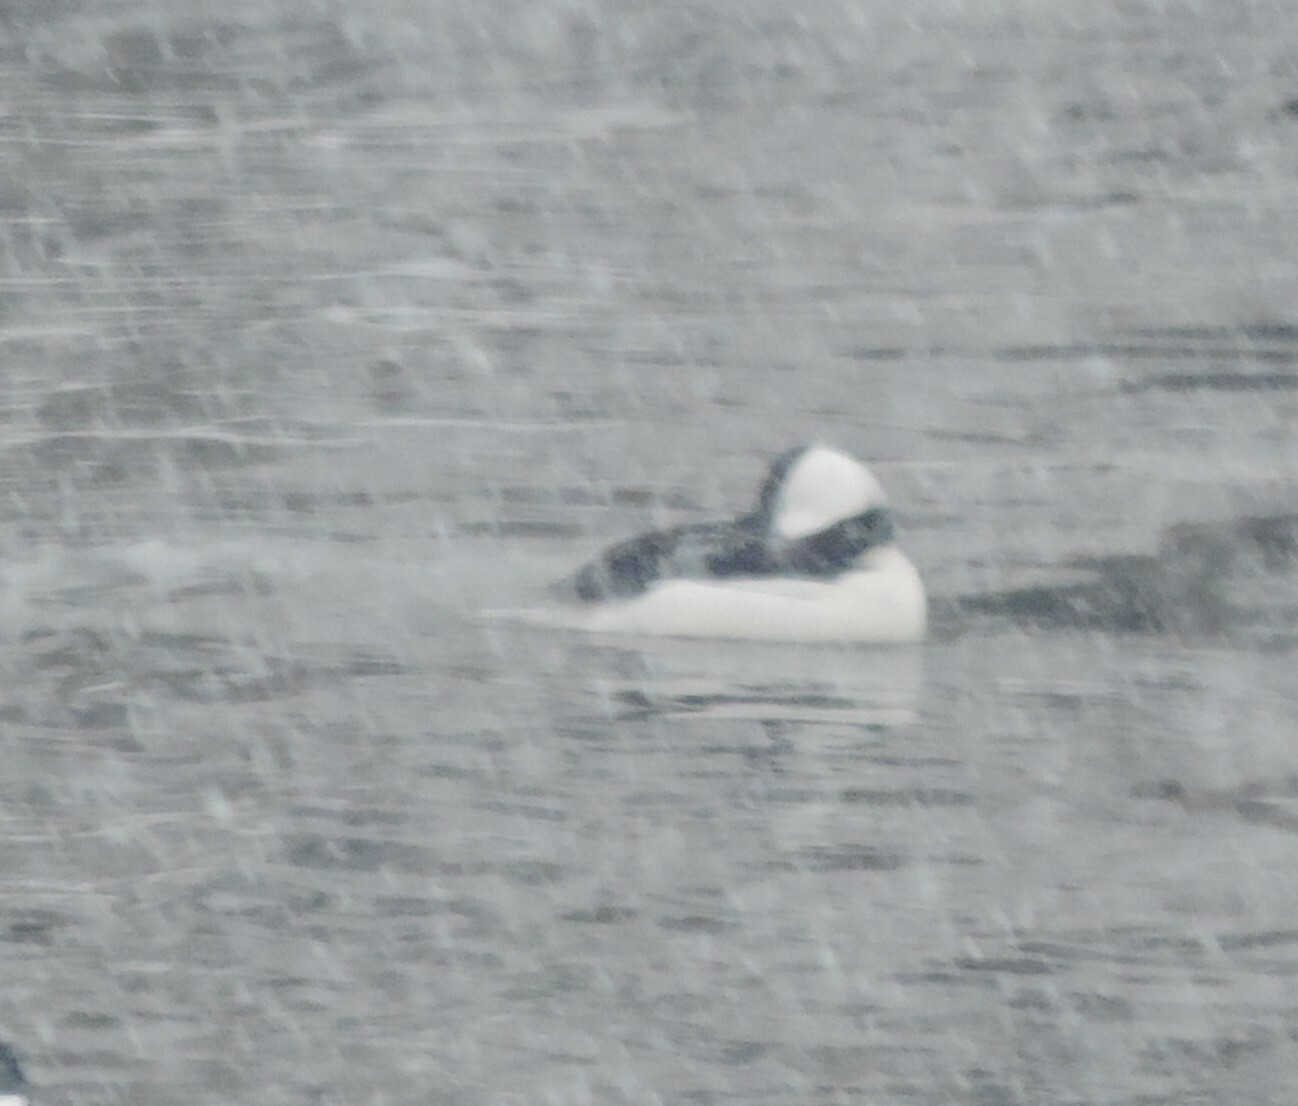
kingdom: Animalia
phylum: Chordata
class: Aves
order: Anseriformes
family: Anatidae
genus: Bucephala
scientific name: Bucephala albeola
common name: Bufflehead
